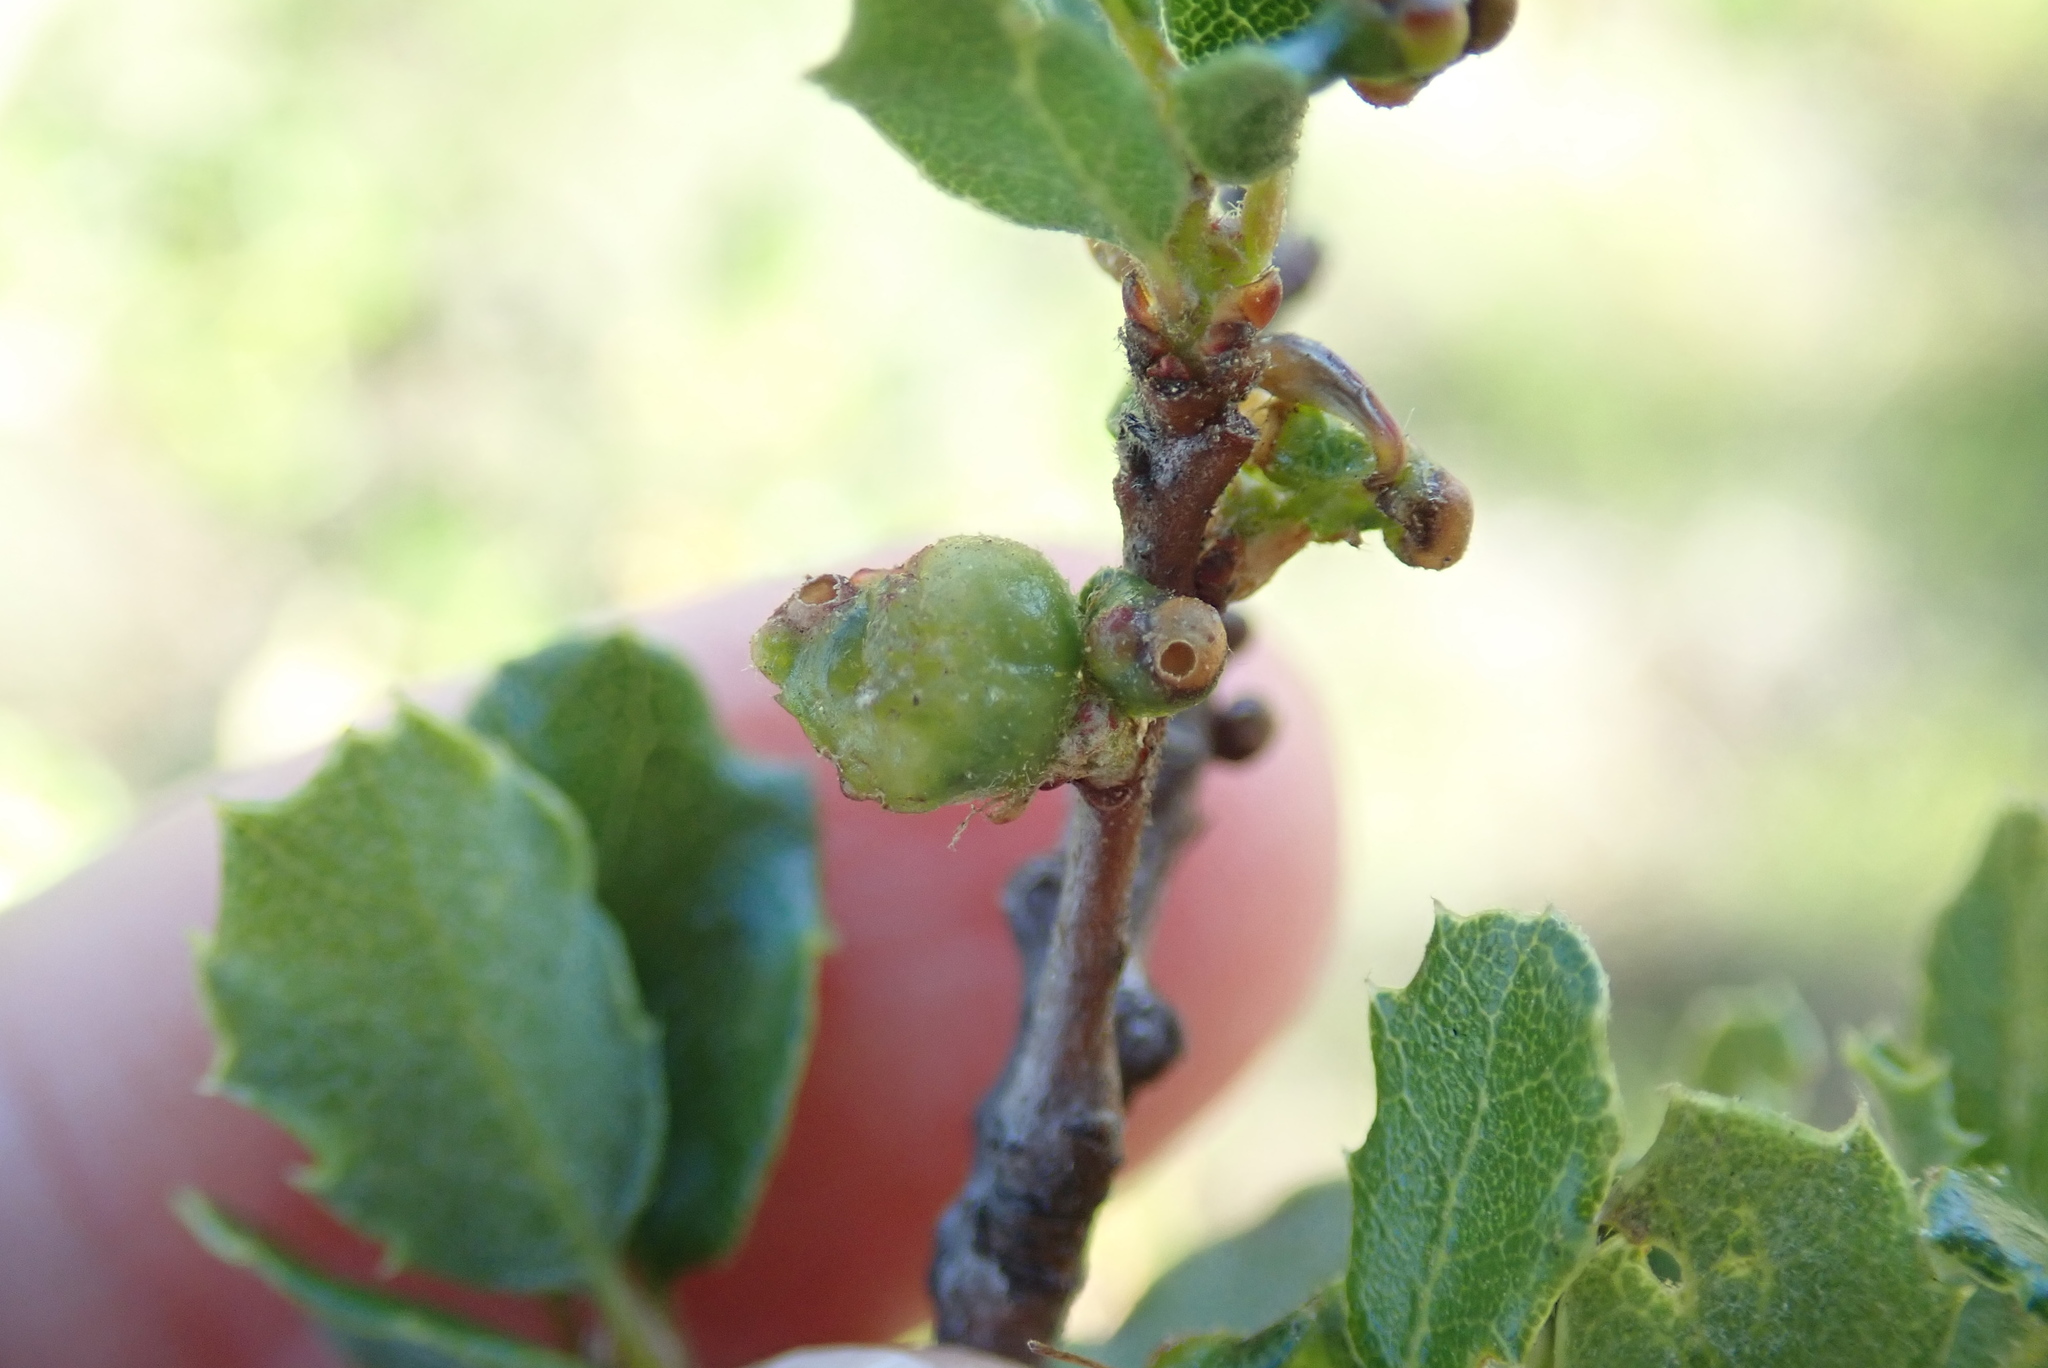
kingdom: Animalia
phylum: Arthropoda
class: Insecta
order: Hymenoptera
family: Cynipidae
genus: Neuroterus
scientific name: Neuroterus saltarius
